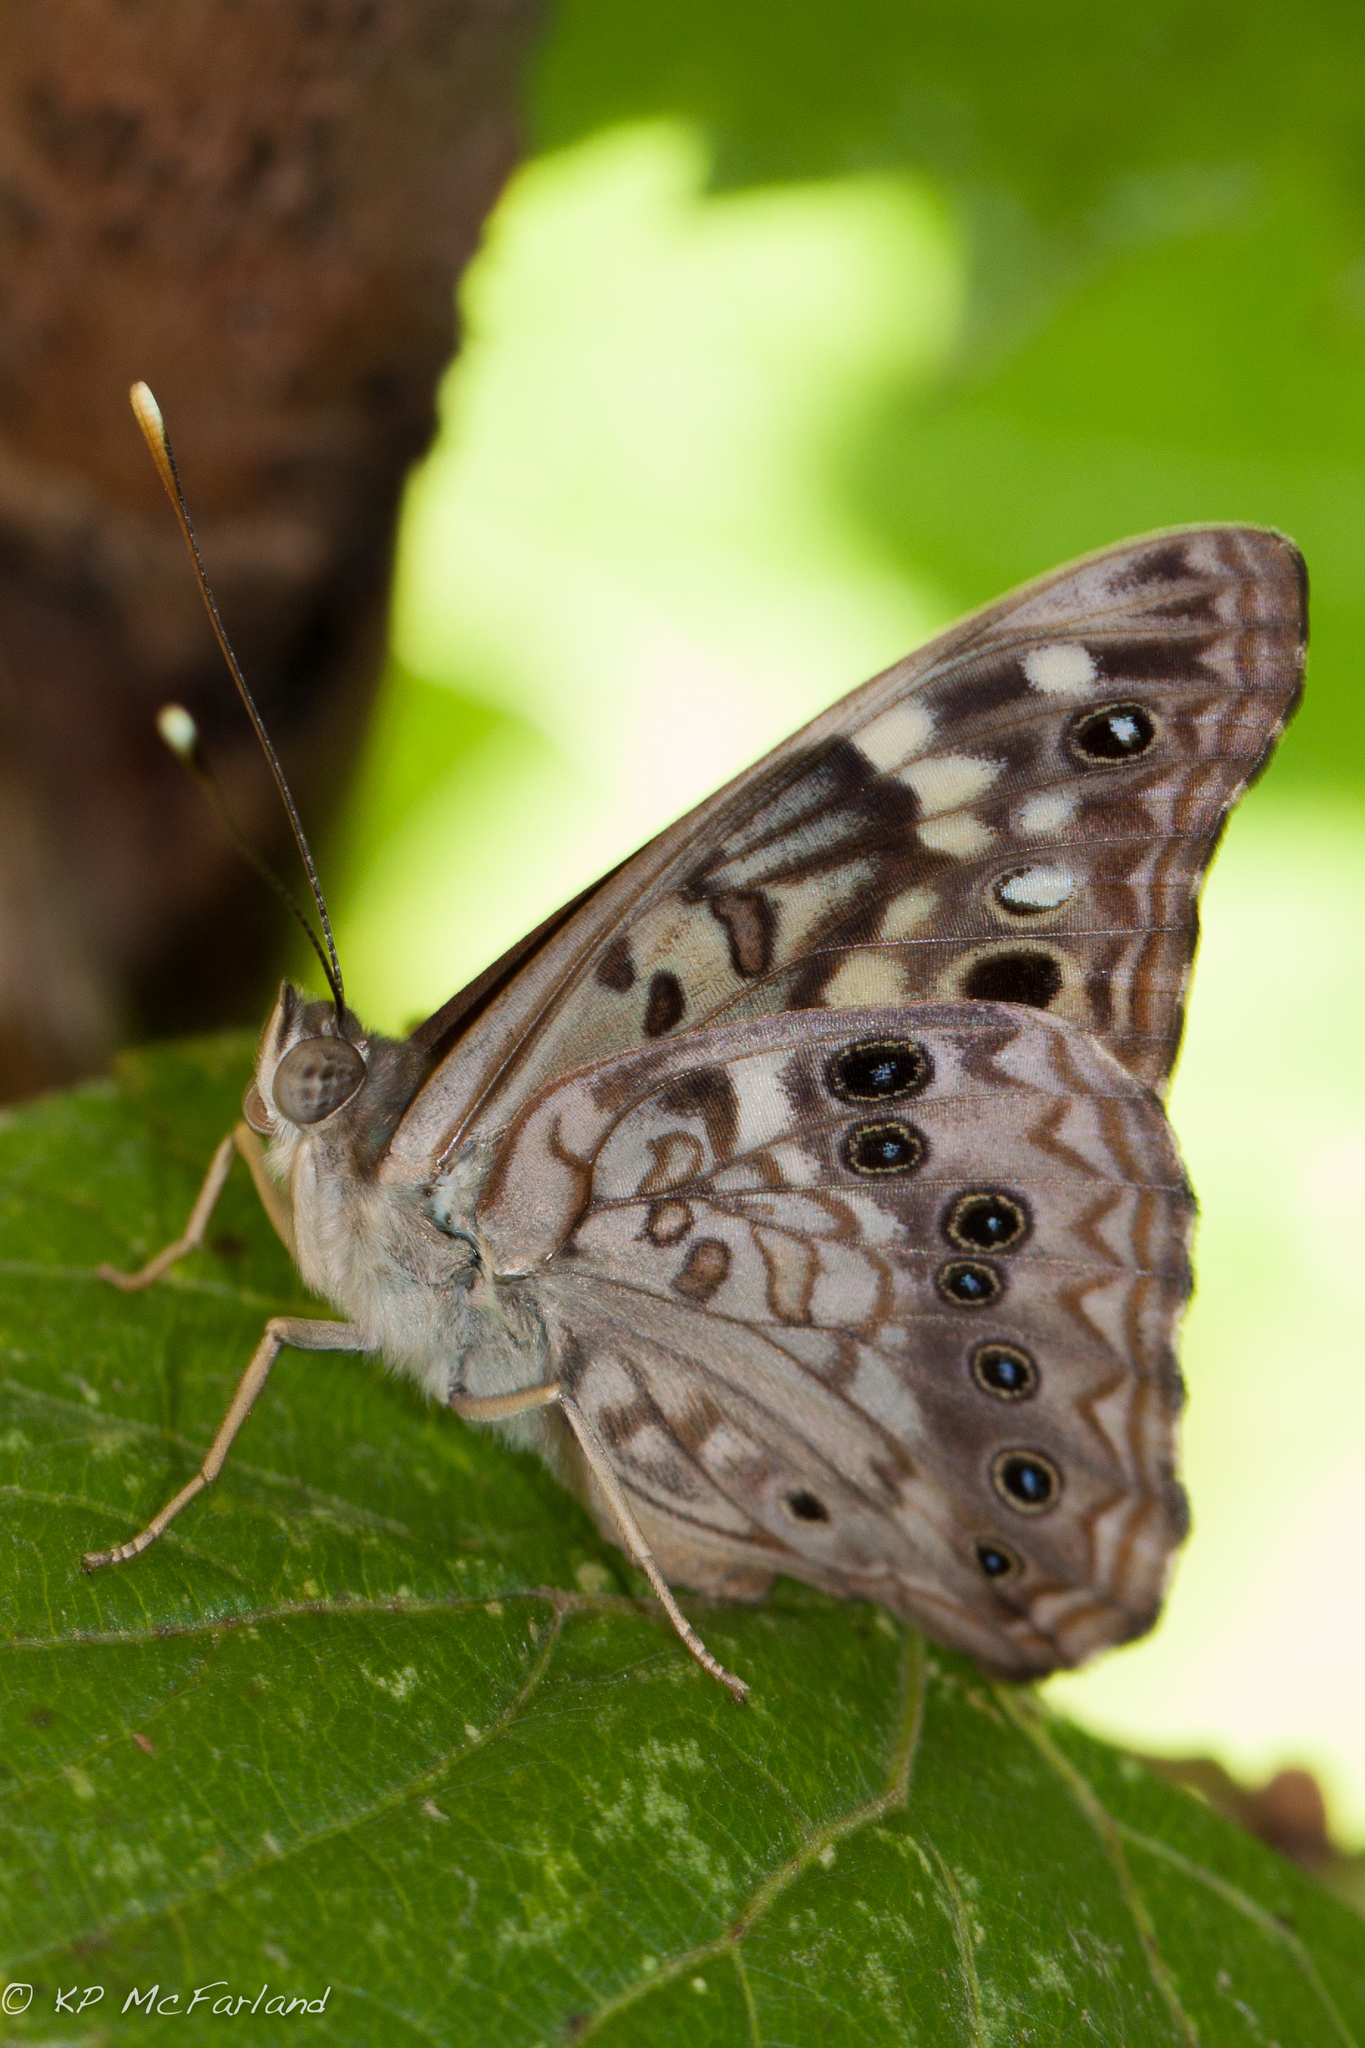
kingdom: Animalia
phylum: Arthropoda
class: Insecta
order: Lepidoptera
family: Nymphalidae
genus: Asterocampa
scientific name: Asterocampa celtis
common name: Hackberry emperor
